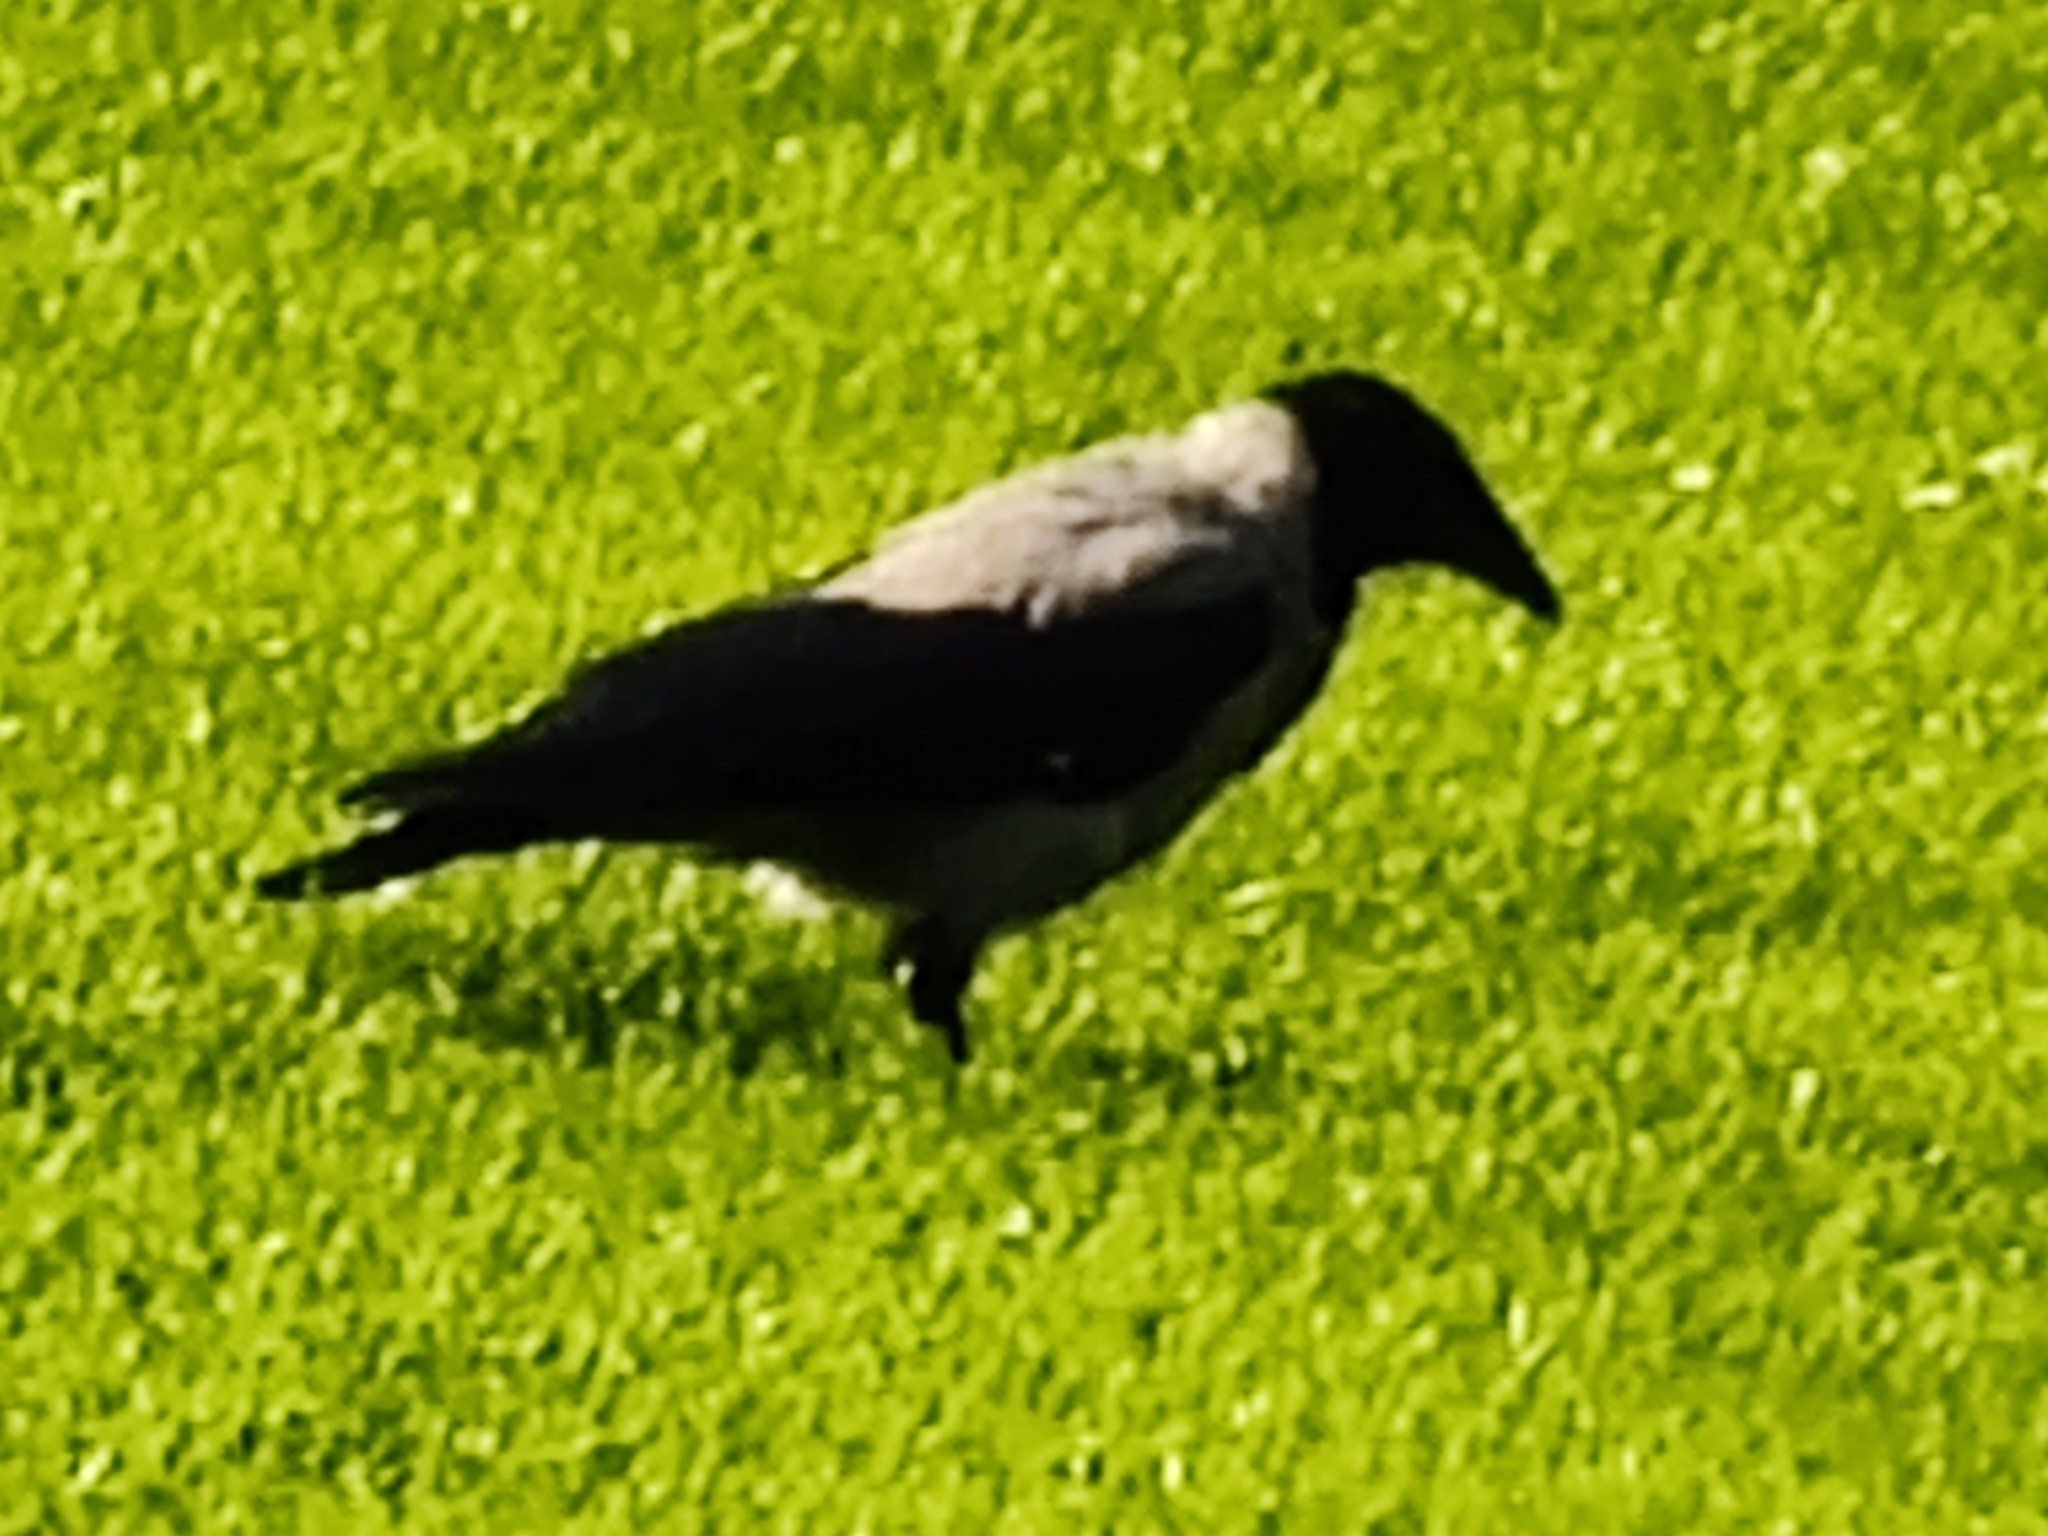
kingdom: Animalia
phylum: Chordata
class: Aves
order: Passeriformes
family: Corvidae
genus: Corvus
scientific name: Corvus cornix
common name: Hooded crow
